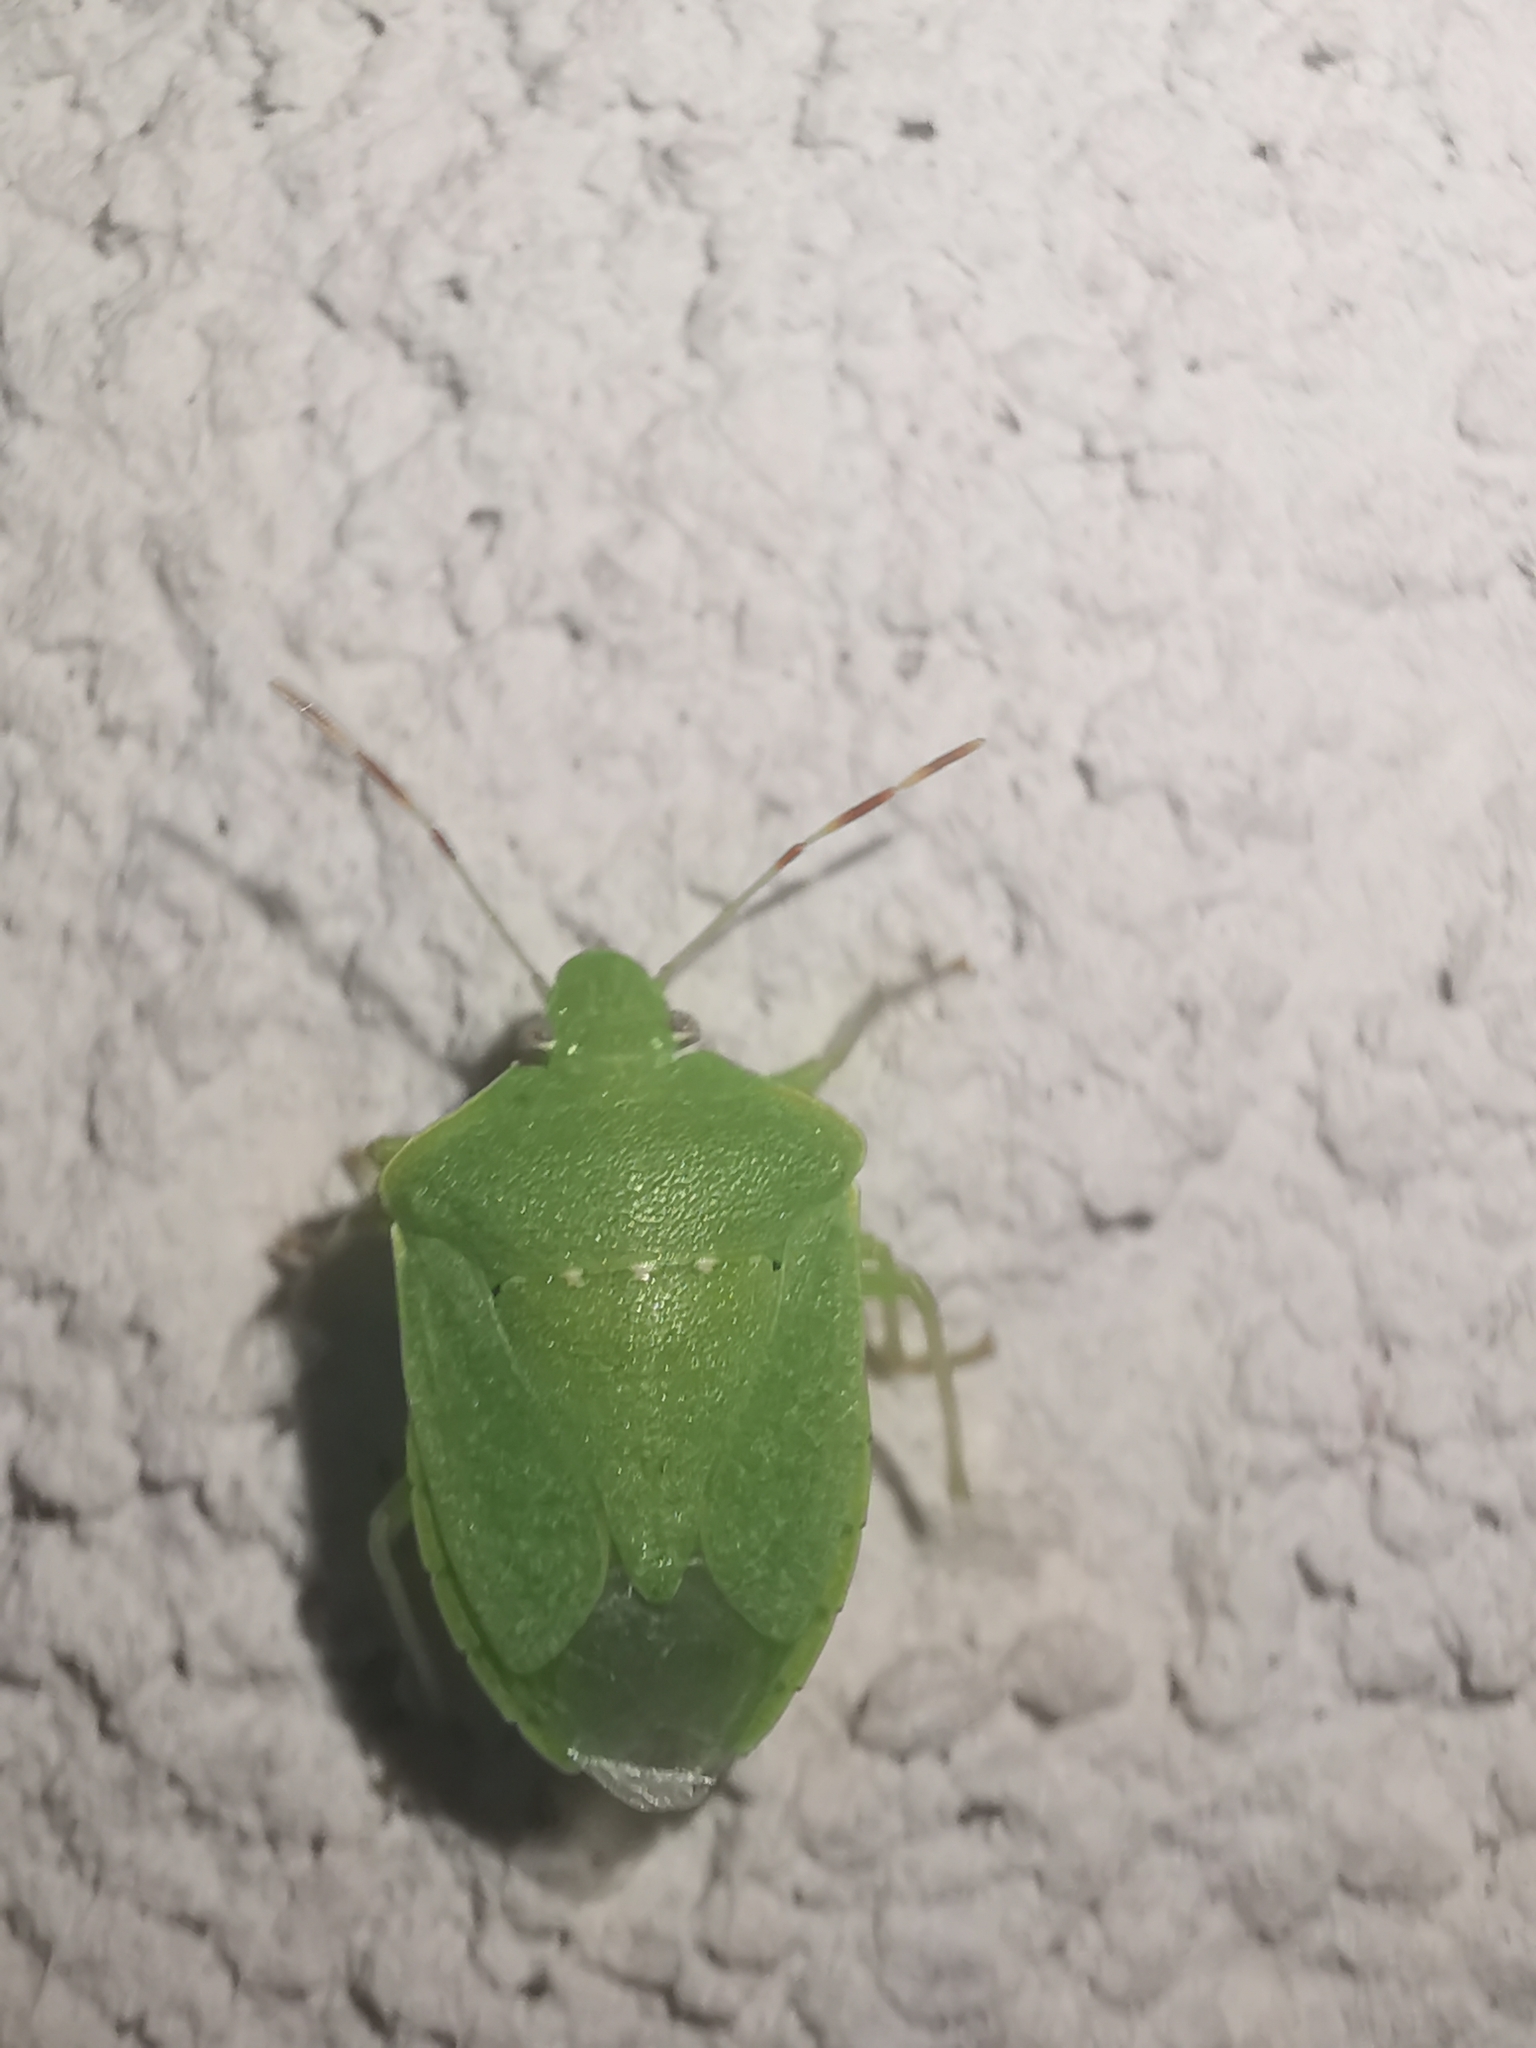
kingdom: Animalia
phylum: Arthropoda
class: Insecta
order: Hemiptera
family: Pentatomidae
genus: Nezara
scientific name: Nezara viridula
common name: Southern green stink bug
